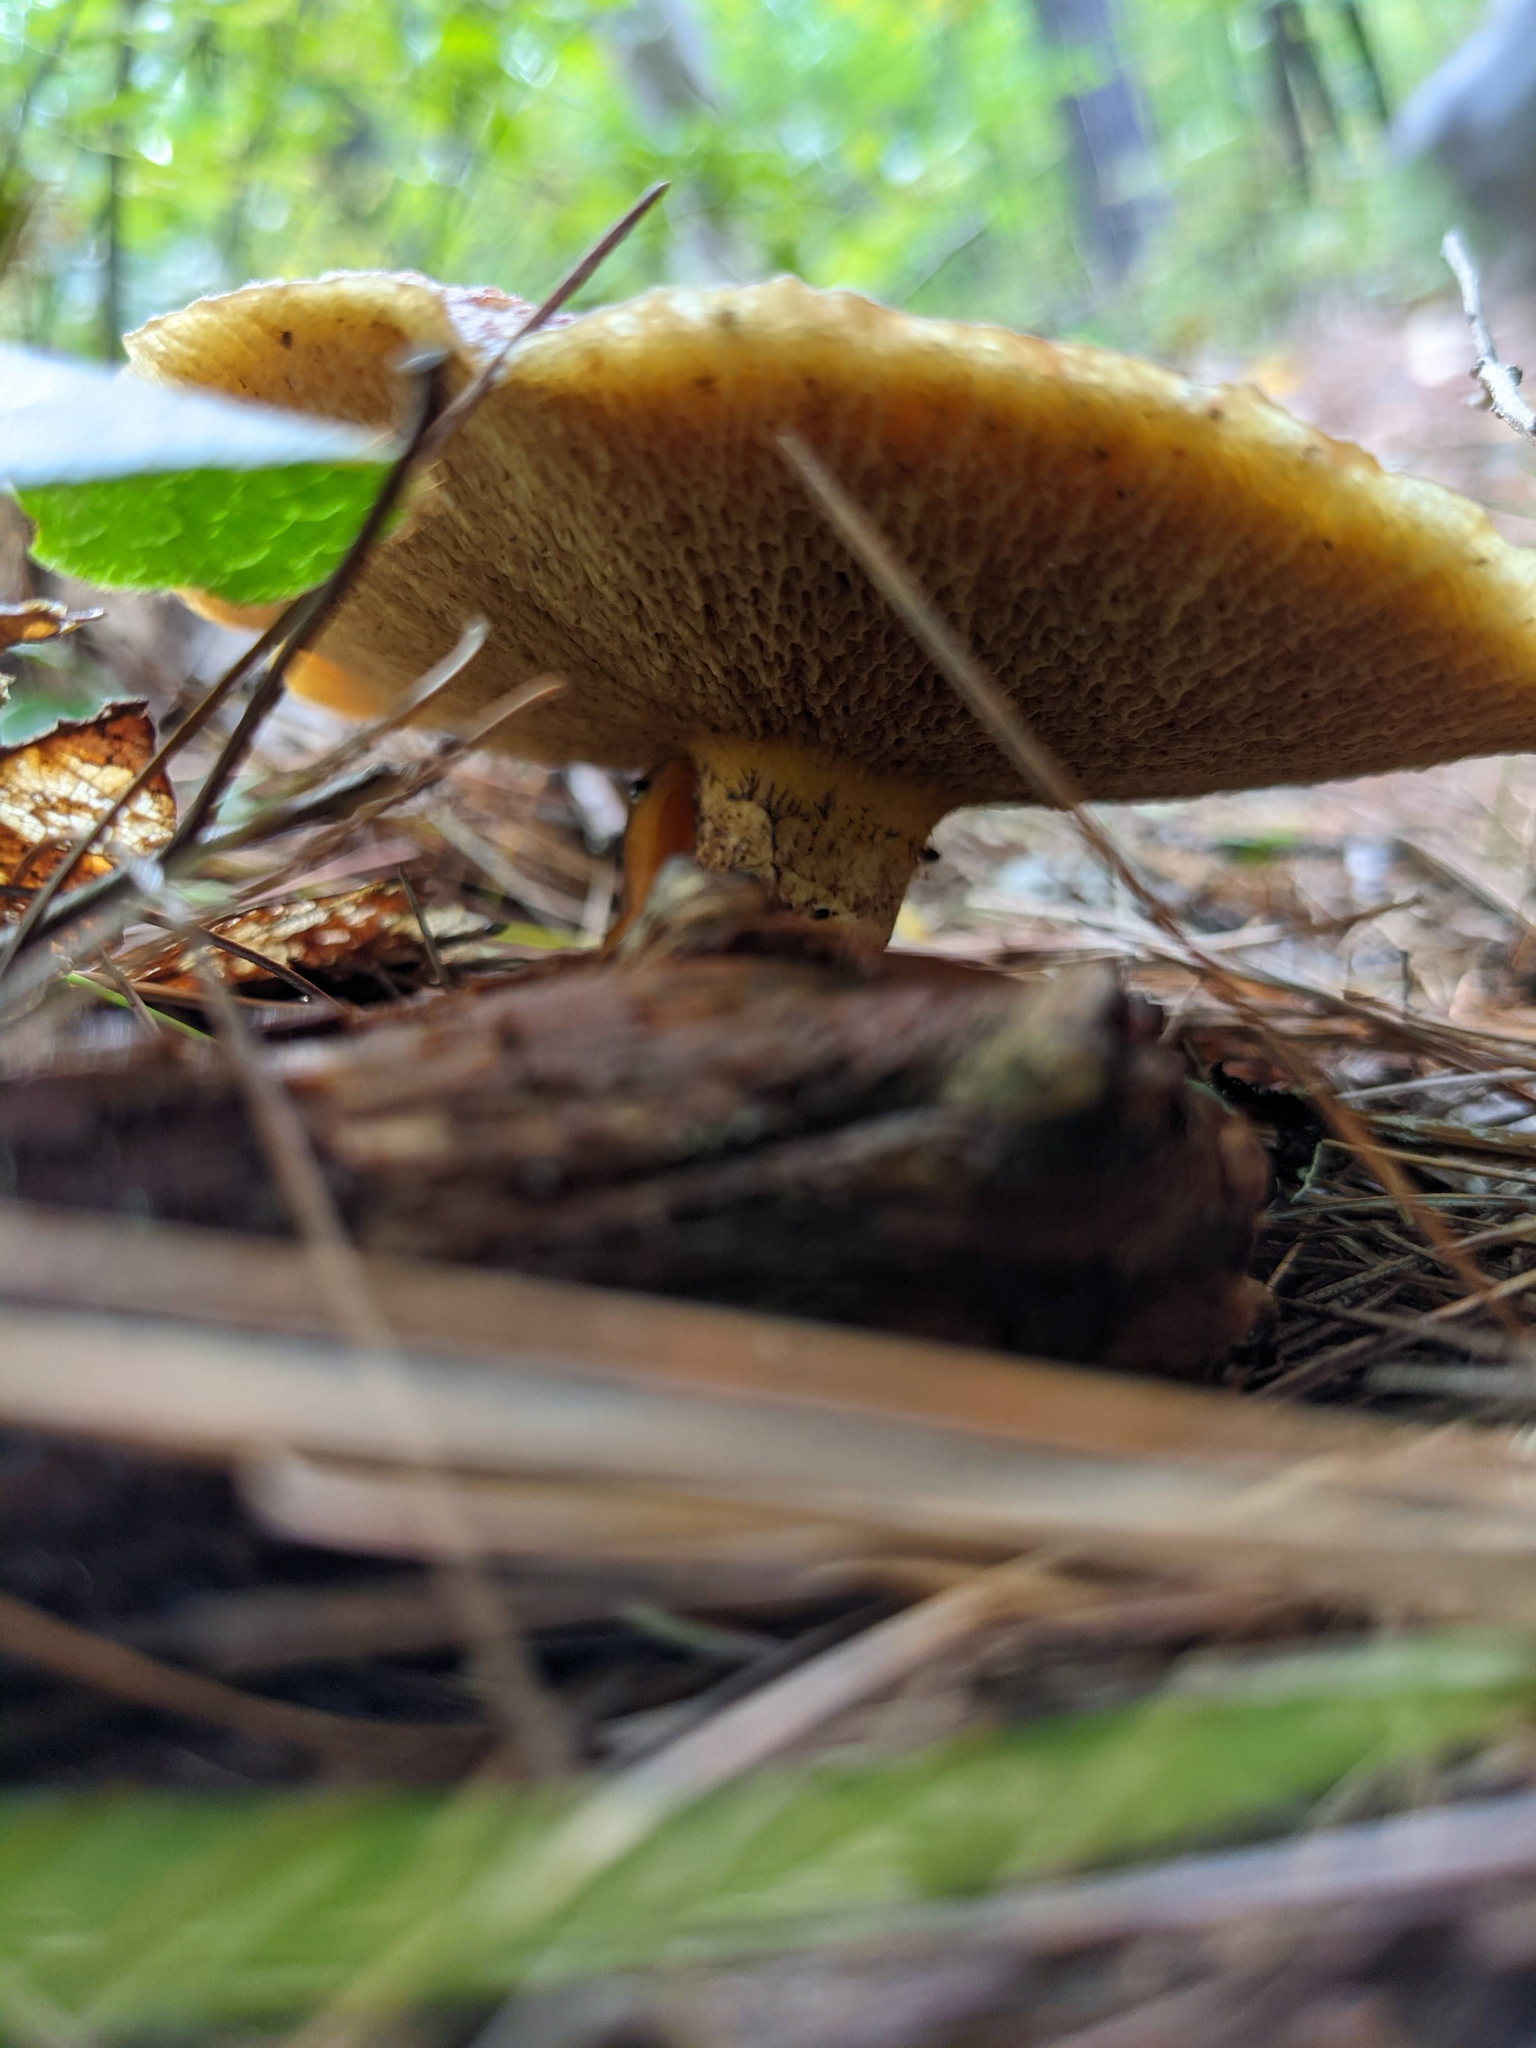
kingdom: Fungi
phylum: Basidiomycota
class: Agaricomycetes
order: Boletales
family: Suillaceae
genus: Suillus
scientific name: Suillus spraguei
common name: Painted suillus
